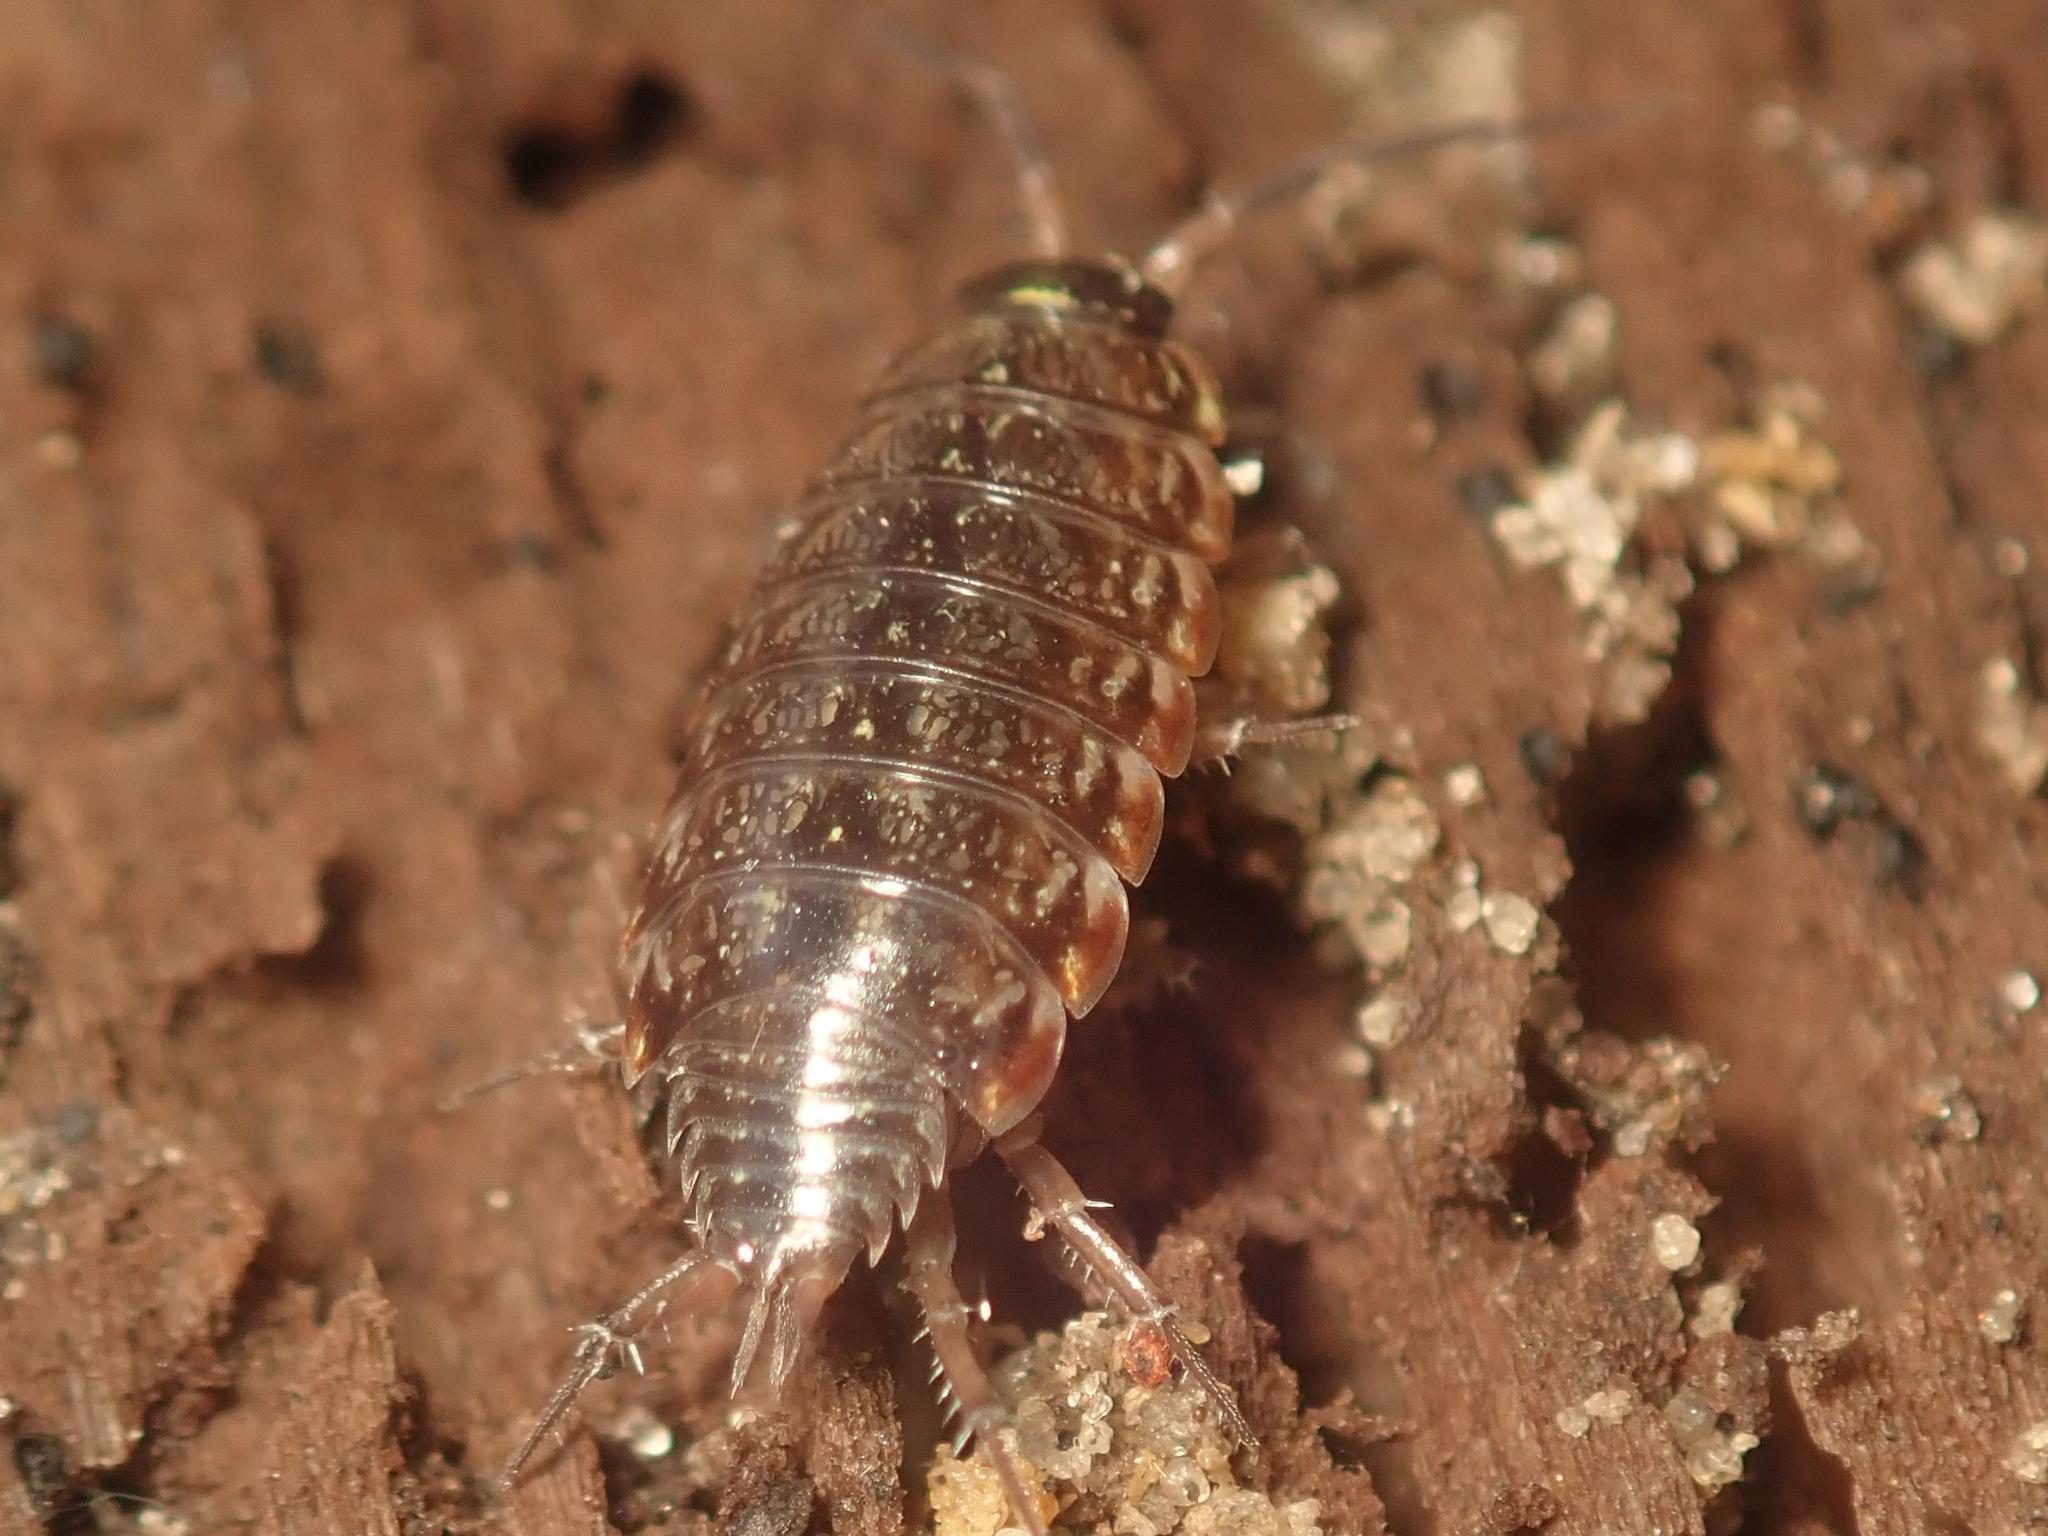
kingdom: Animalia
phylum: Arthropoda
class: Malacostraca
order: Isopoda
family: Philosciidae
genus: Philoscia
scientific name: Philoscia muscorum
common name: Common striped woodlouse
